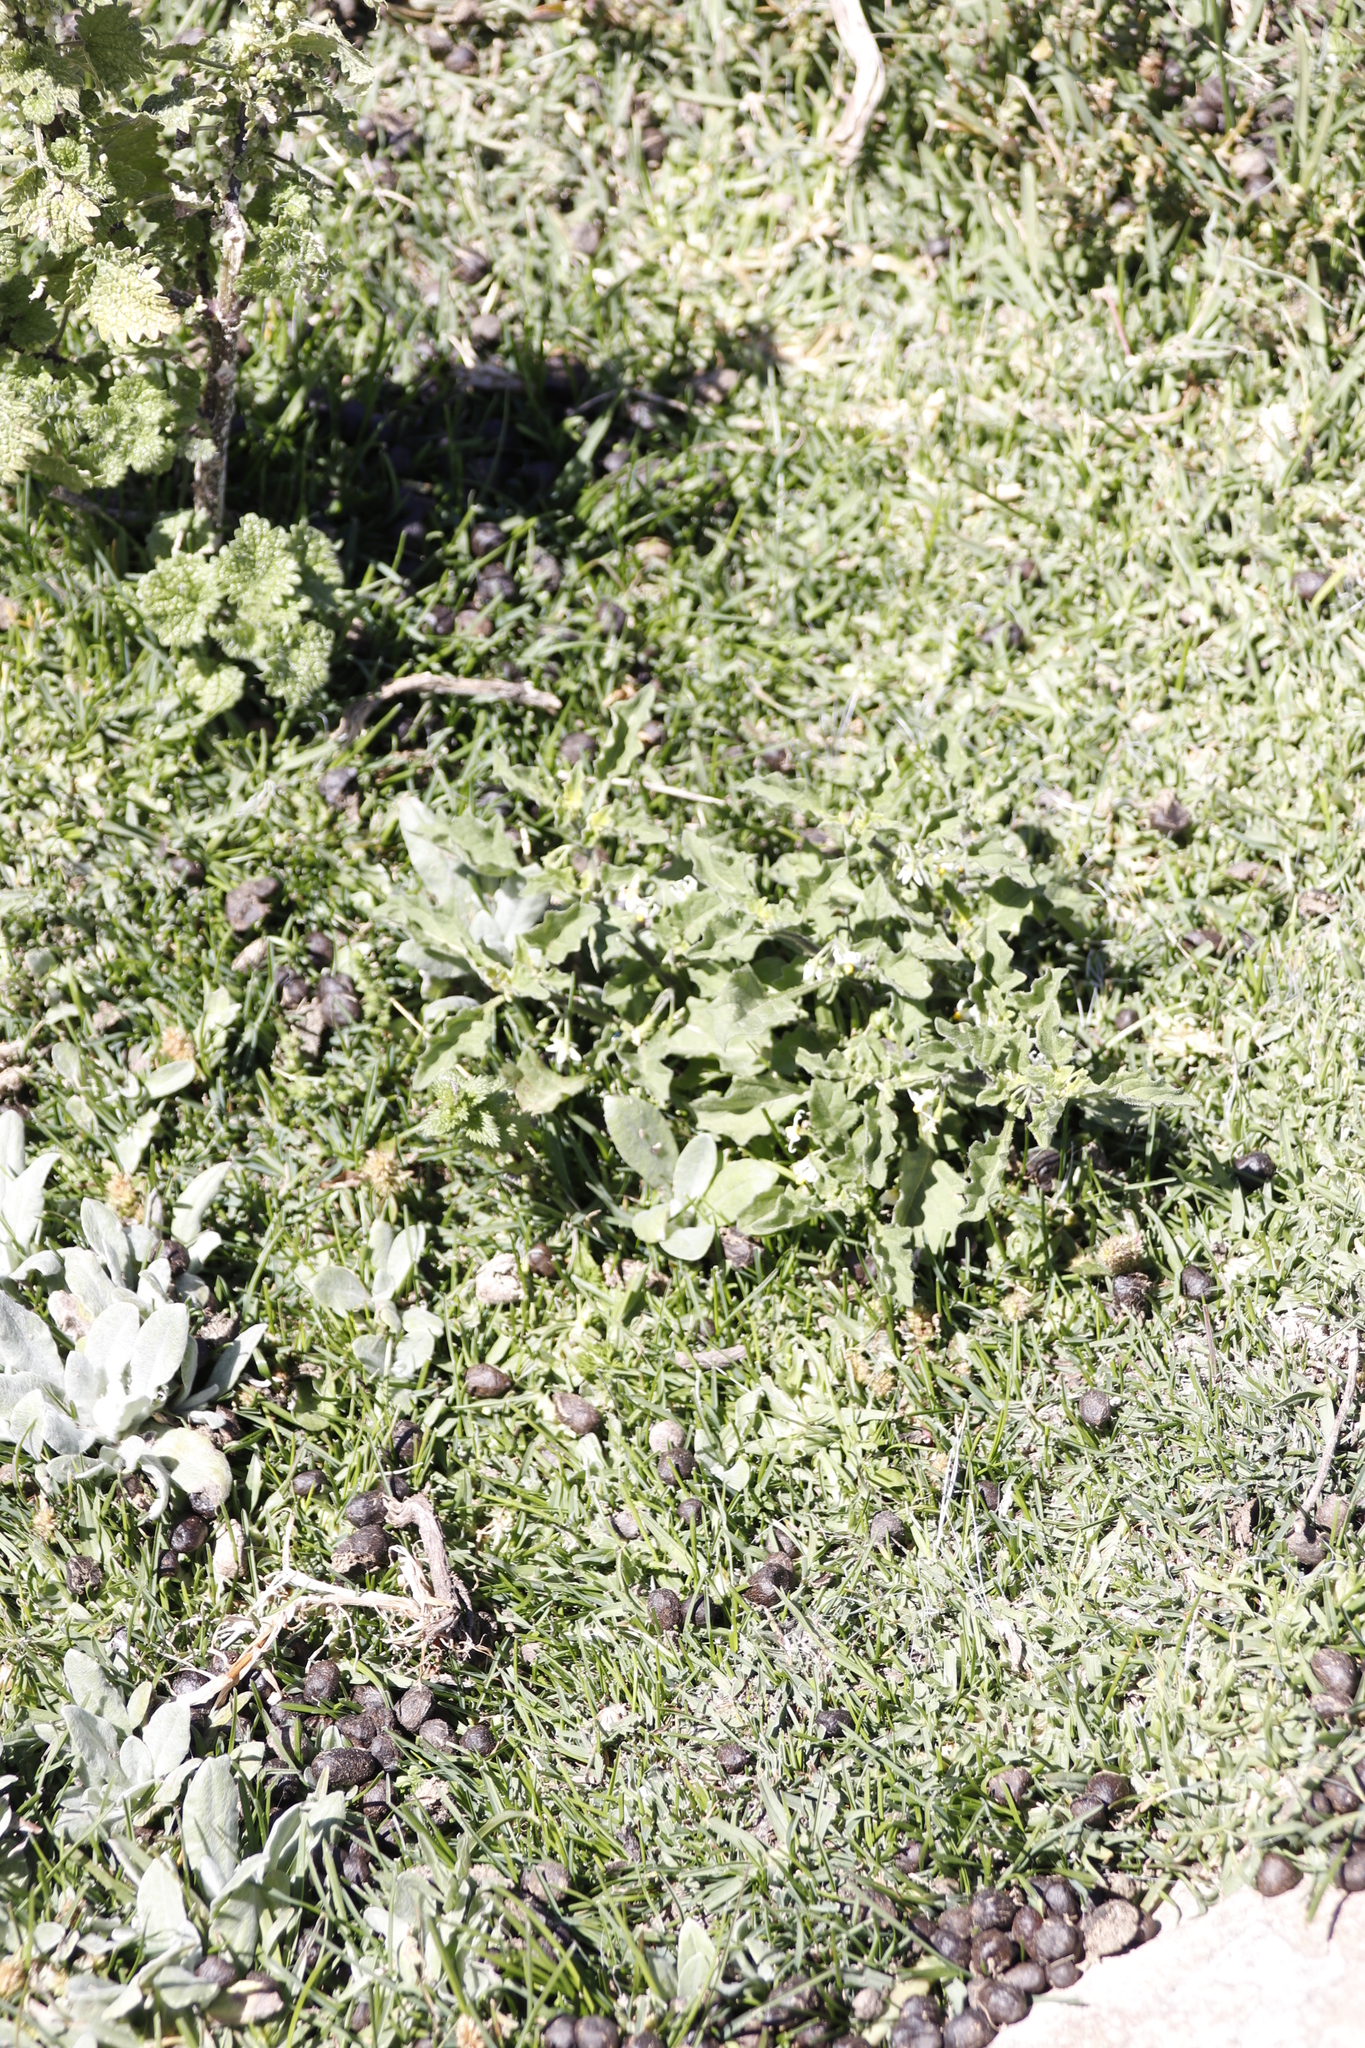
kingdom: Plantae
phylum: Tracheophyta
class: Magnoliopsida
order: Solanales
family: Solanaceae
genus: Solanum
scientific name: Solanum retroflexum
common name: Wonderberry
